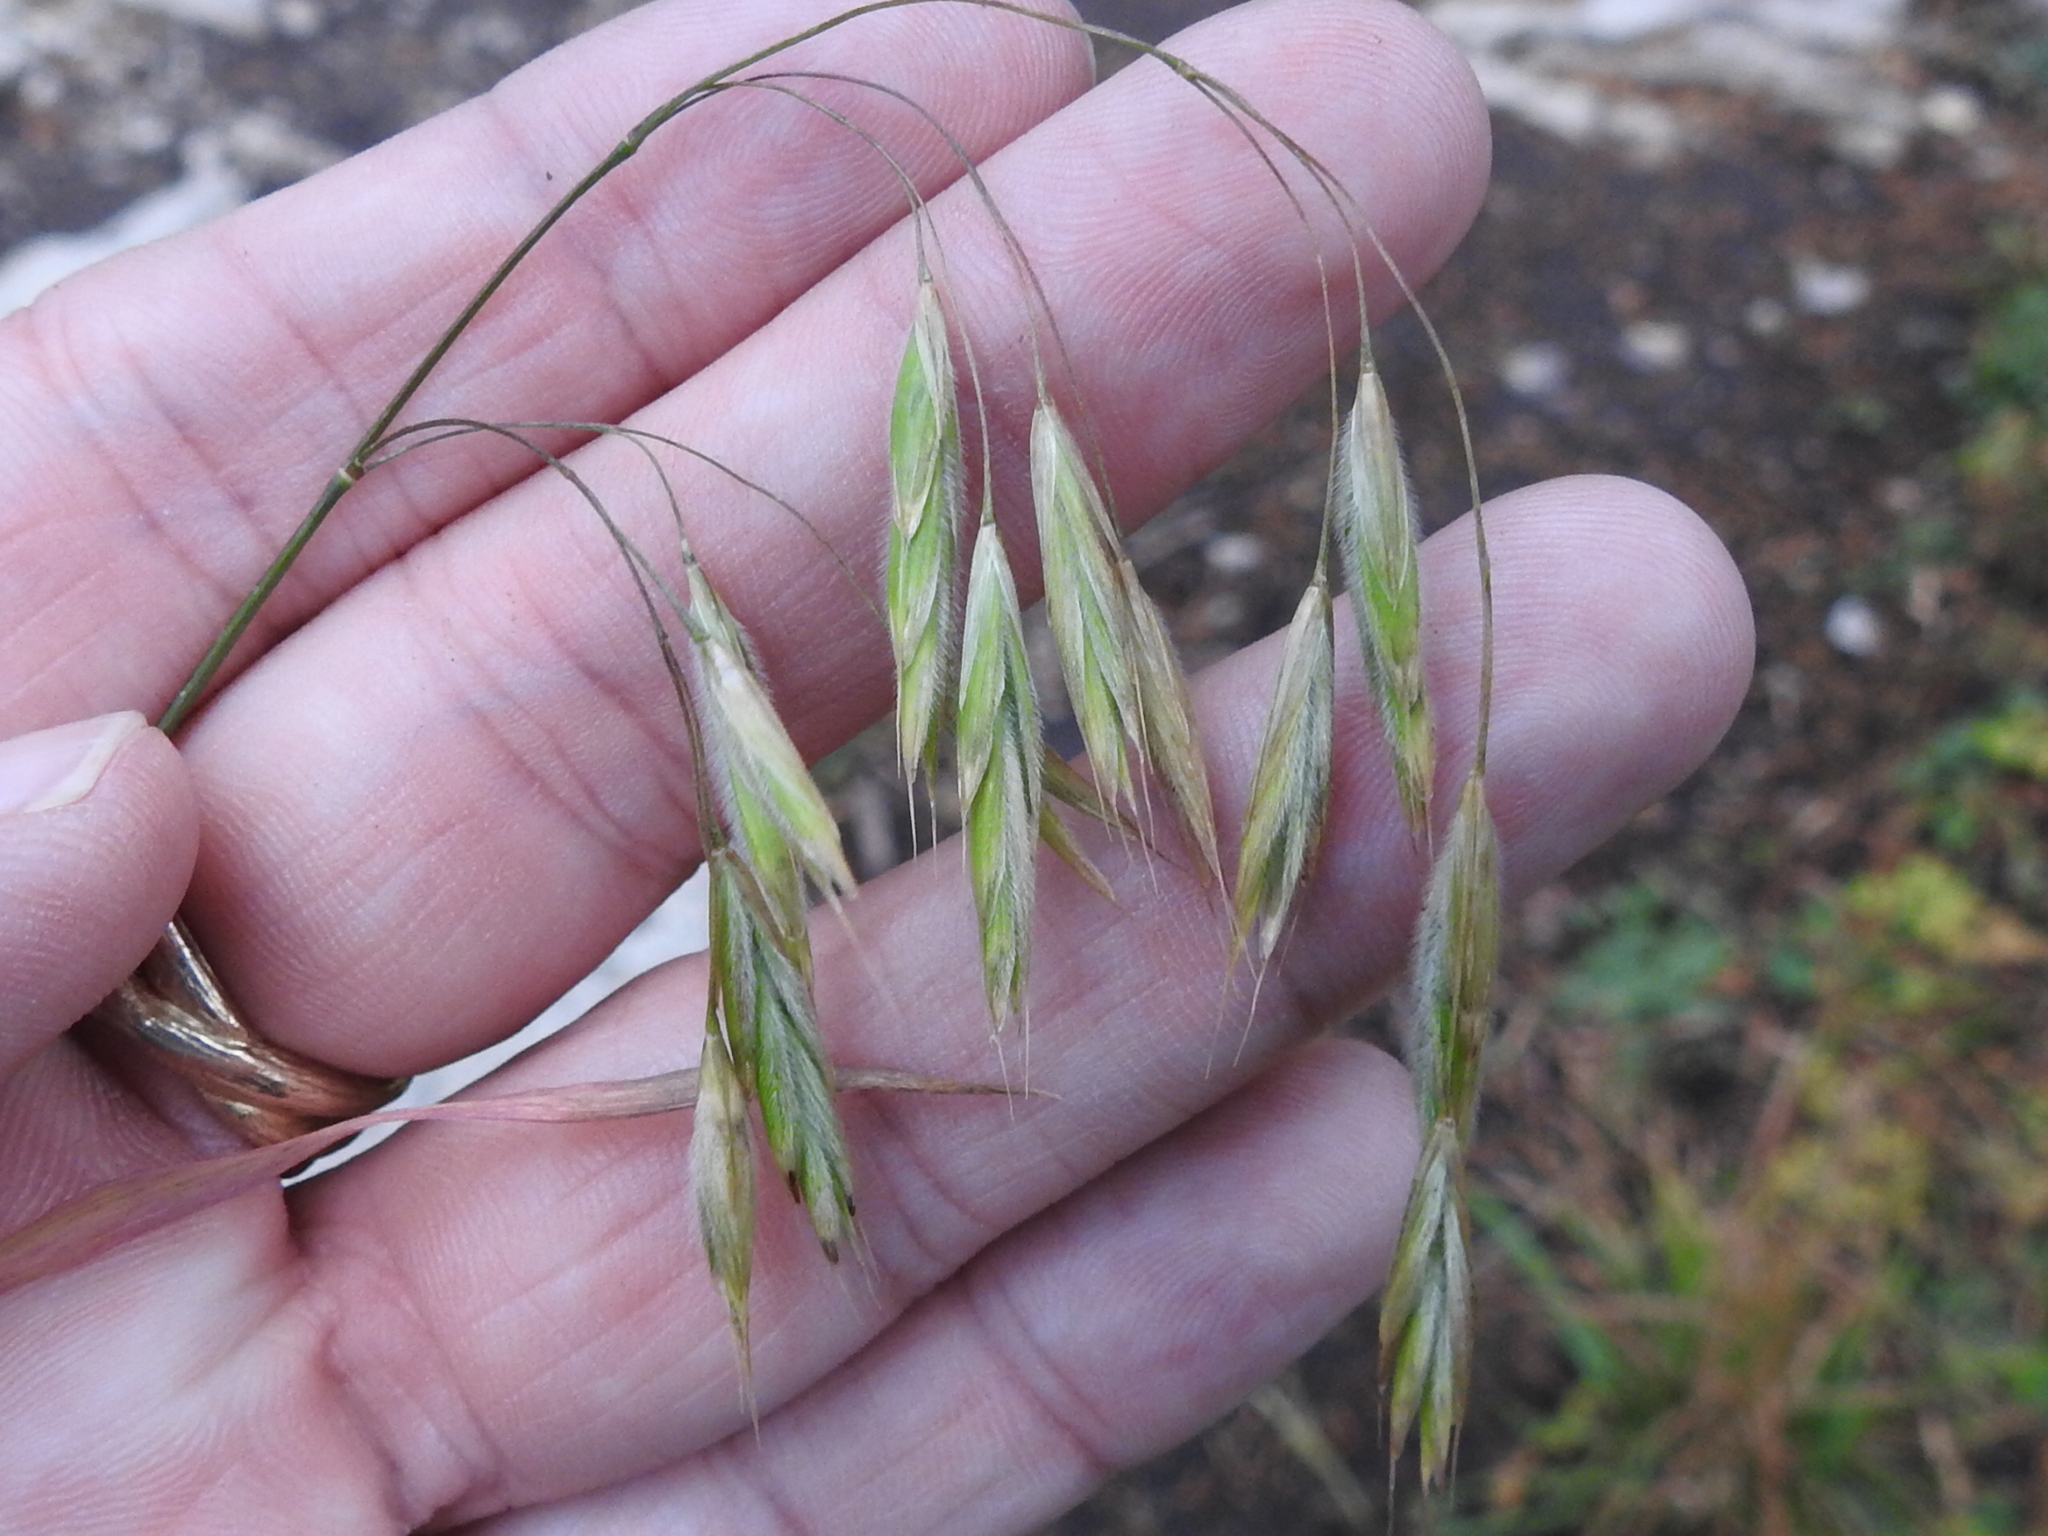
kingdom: Plantae
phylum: Tracheophyta
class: Liliopsida
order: Poales
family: Poaceae
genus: Bromus
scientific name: Bromus ciliatus
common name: Fringe brome
